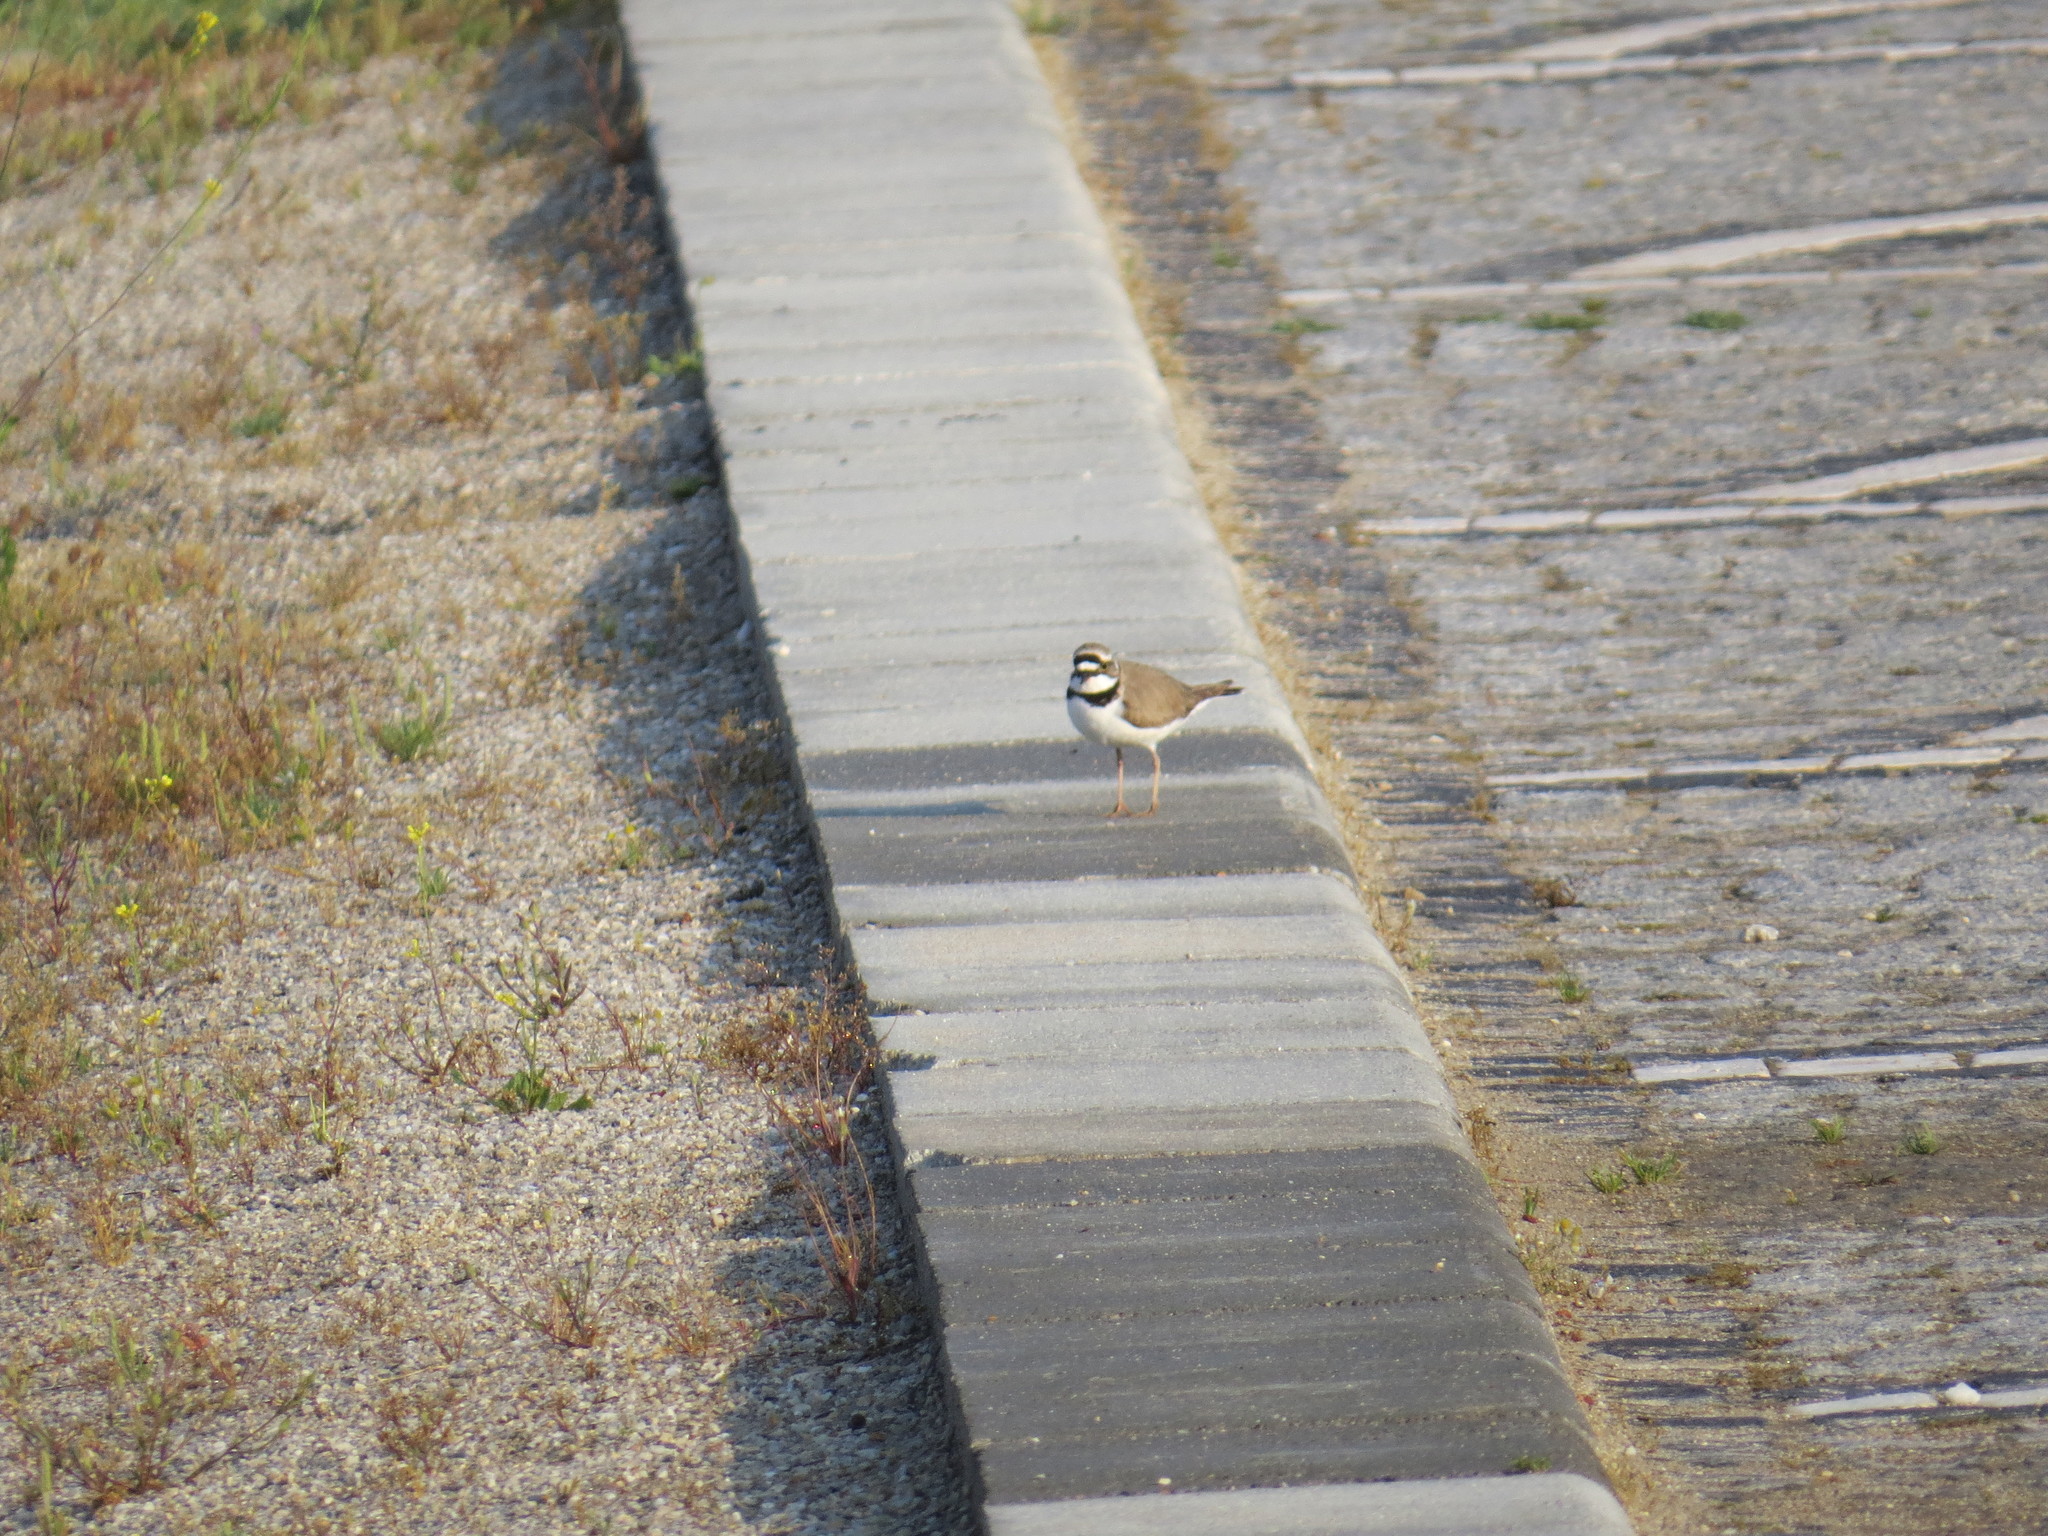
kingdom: Animalia
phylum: Chordata
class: Aves
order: Charadriiformes
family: Charadriidae
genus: Charadrius
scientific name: Charadrius dubius
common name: Little ringed plover
